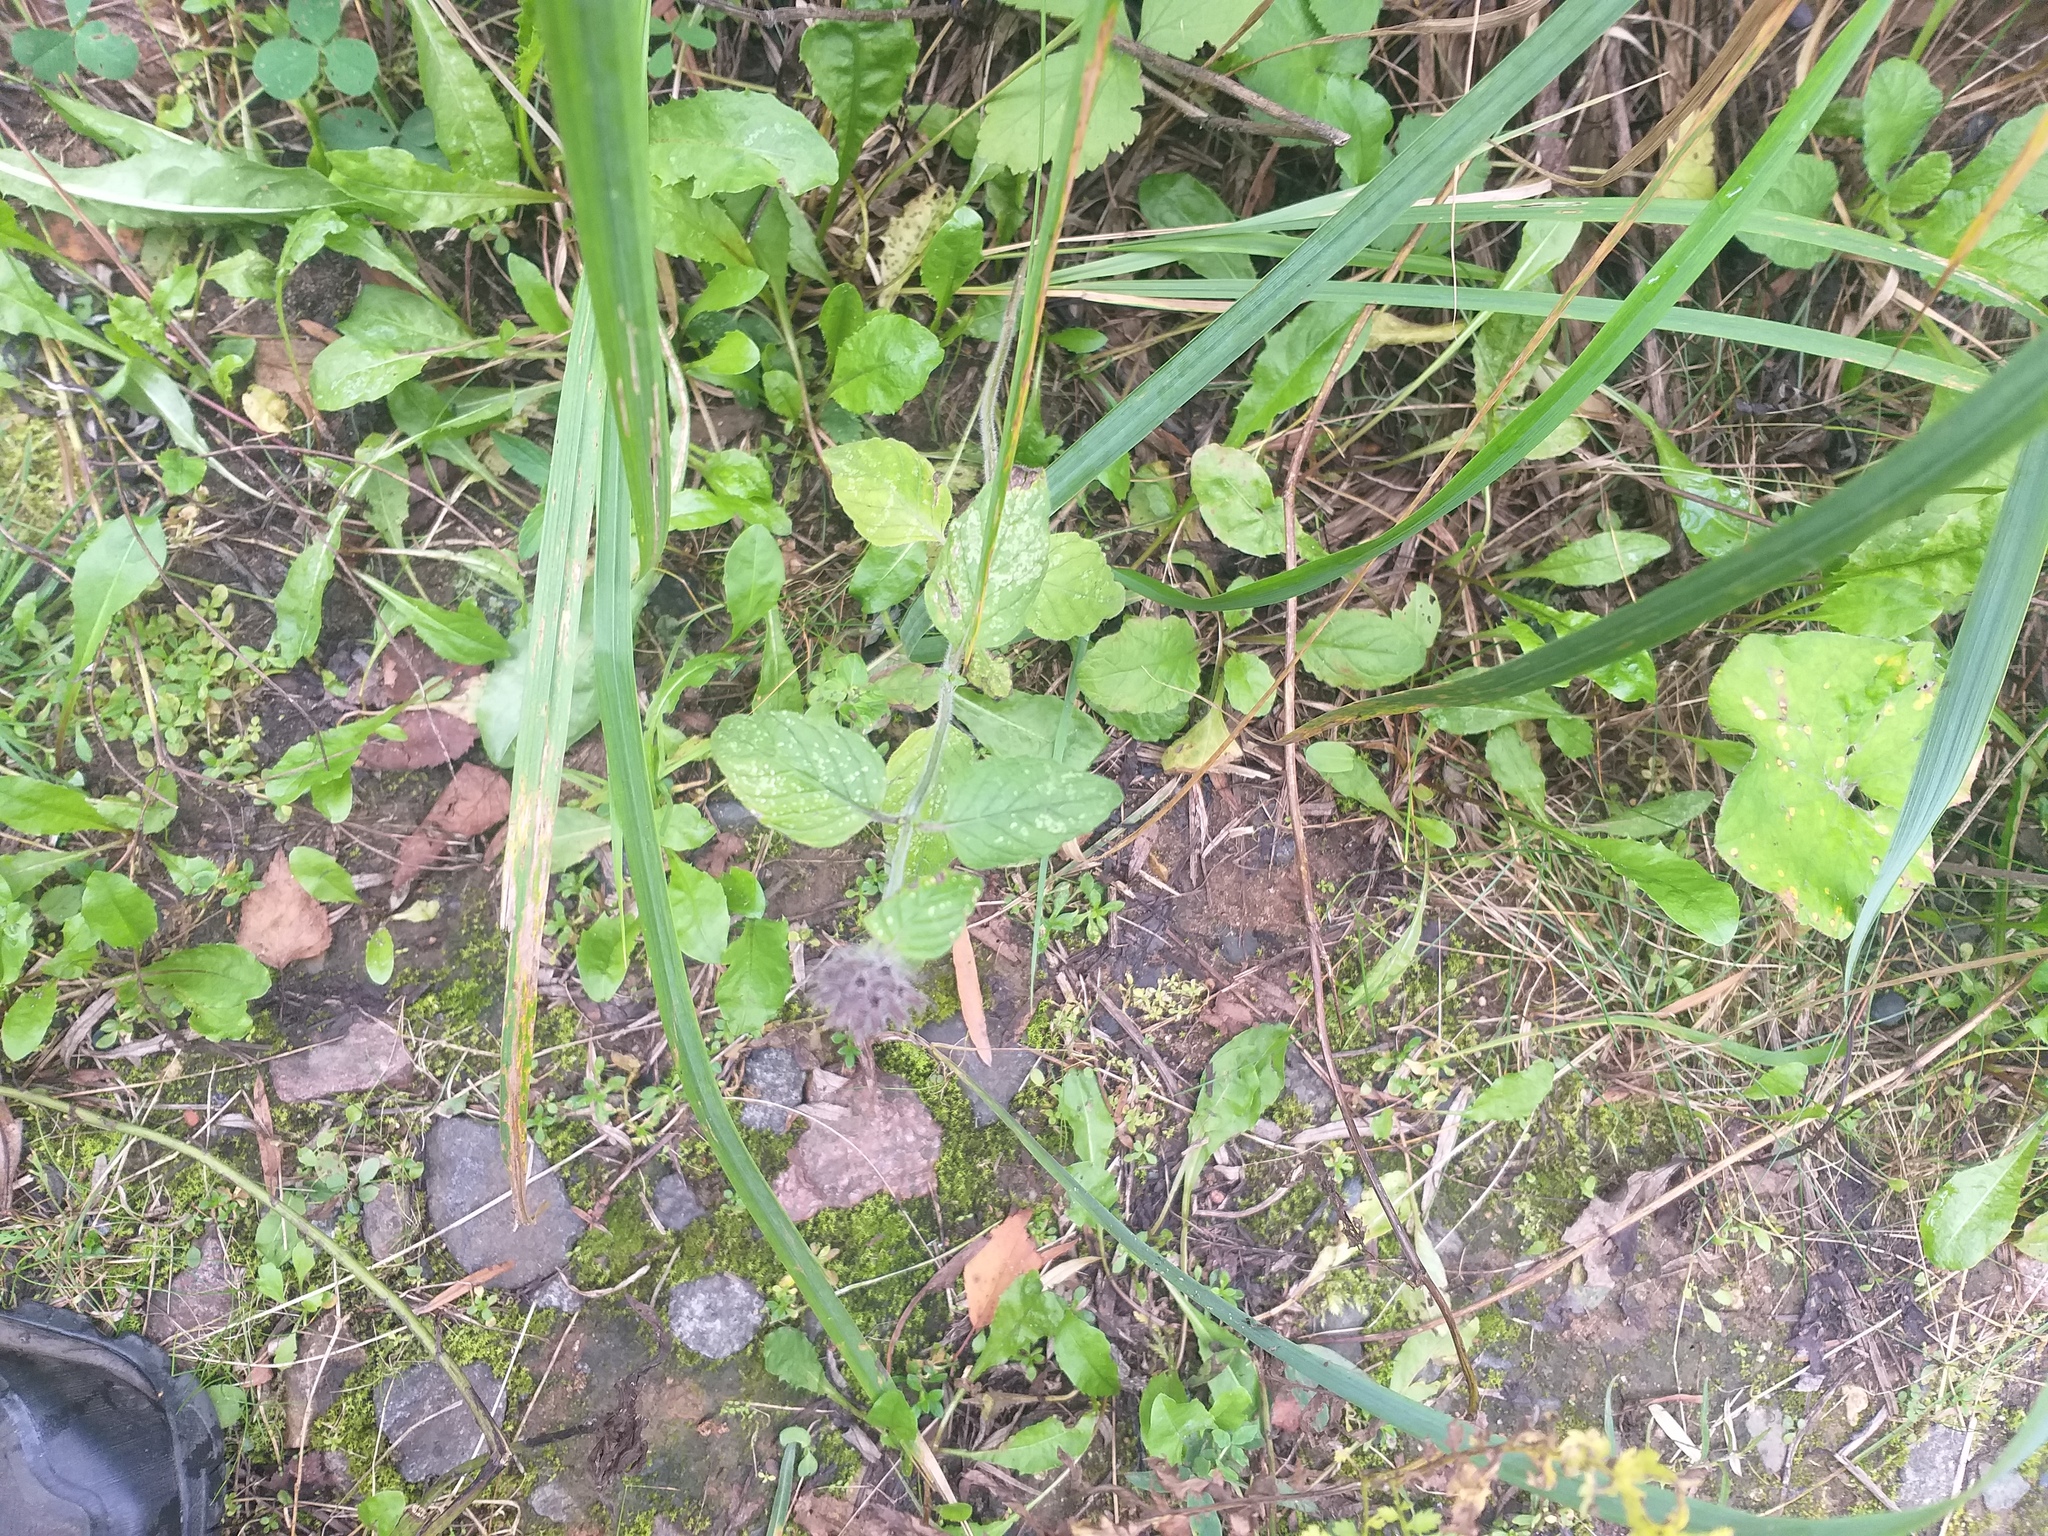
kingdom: Plantae
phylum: Tracheophyta
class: Magnoliopsida
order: Lamiales
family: Lamiaceae
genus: Clinopodium
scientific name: Clinopodium vulgare
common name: Wild basil
